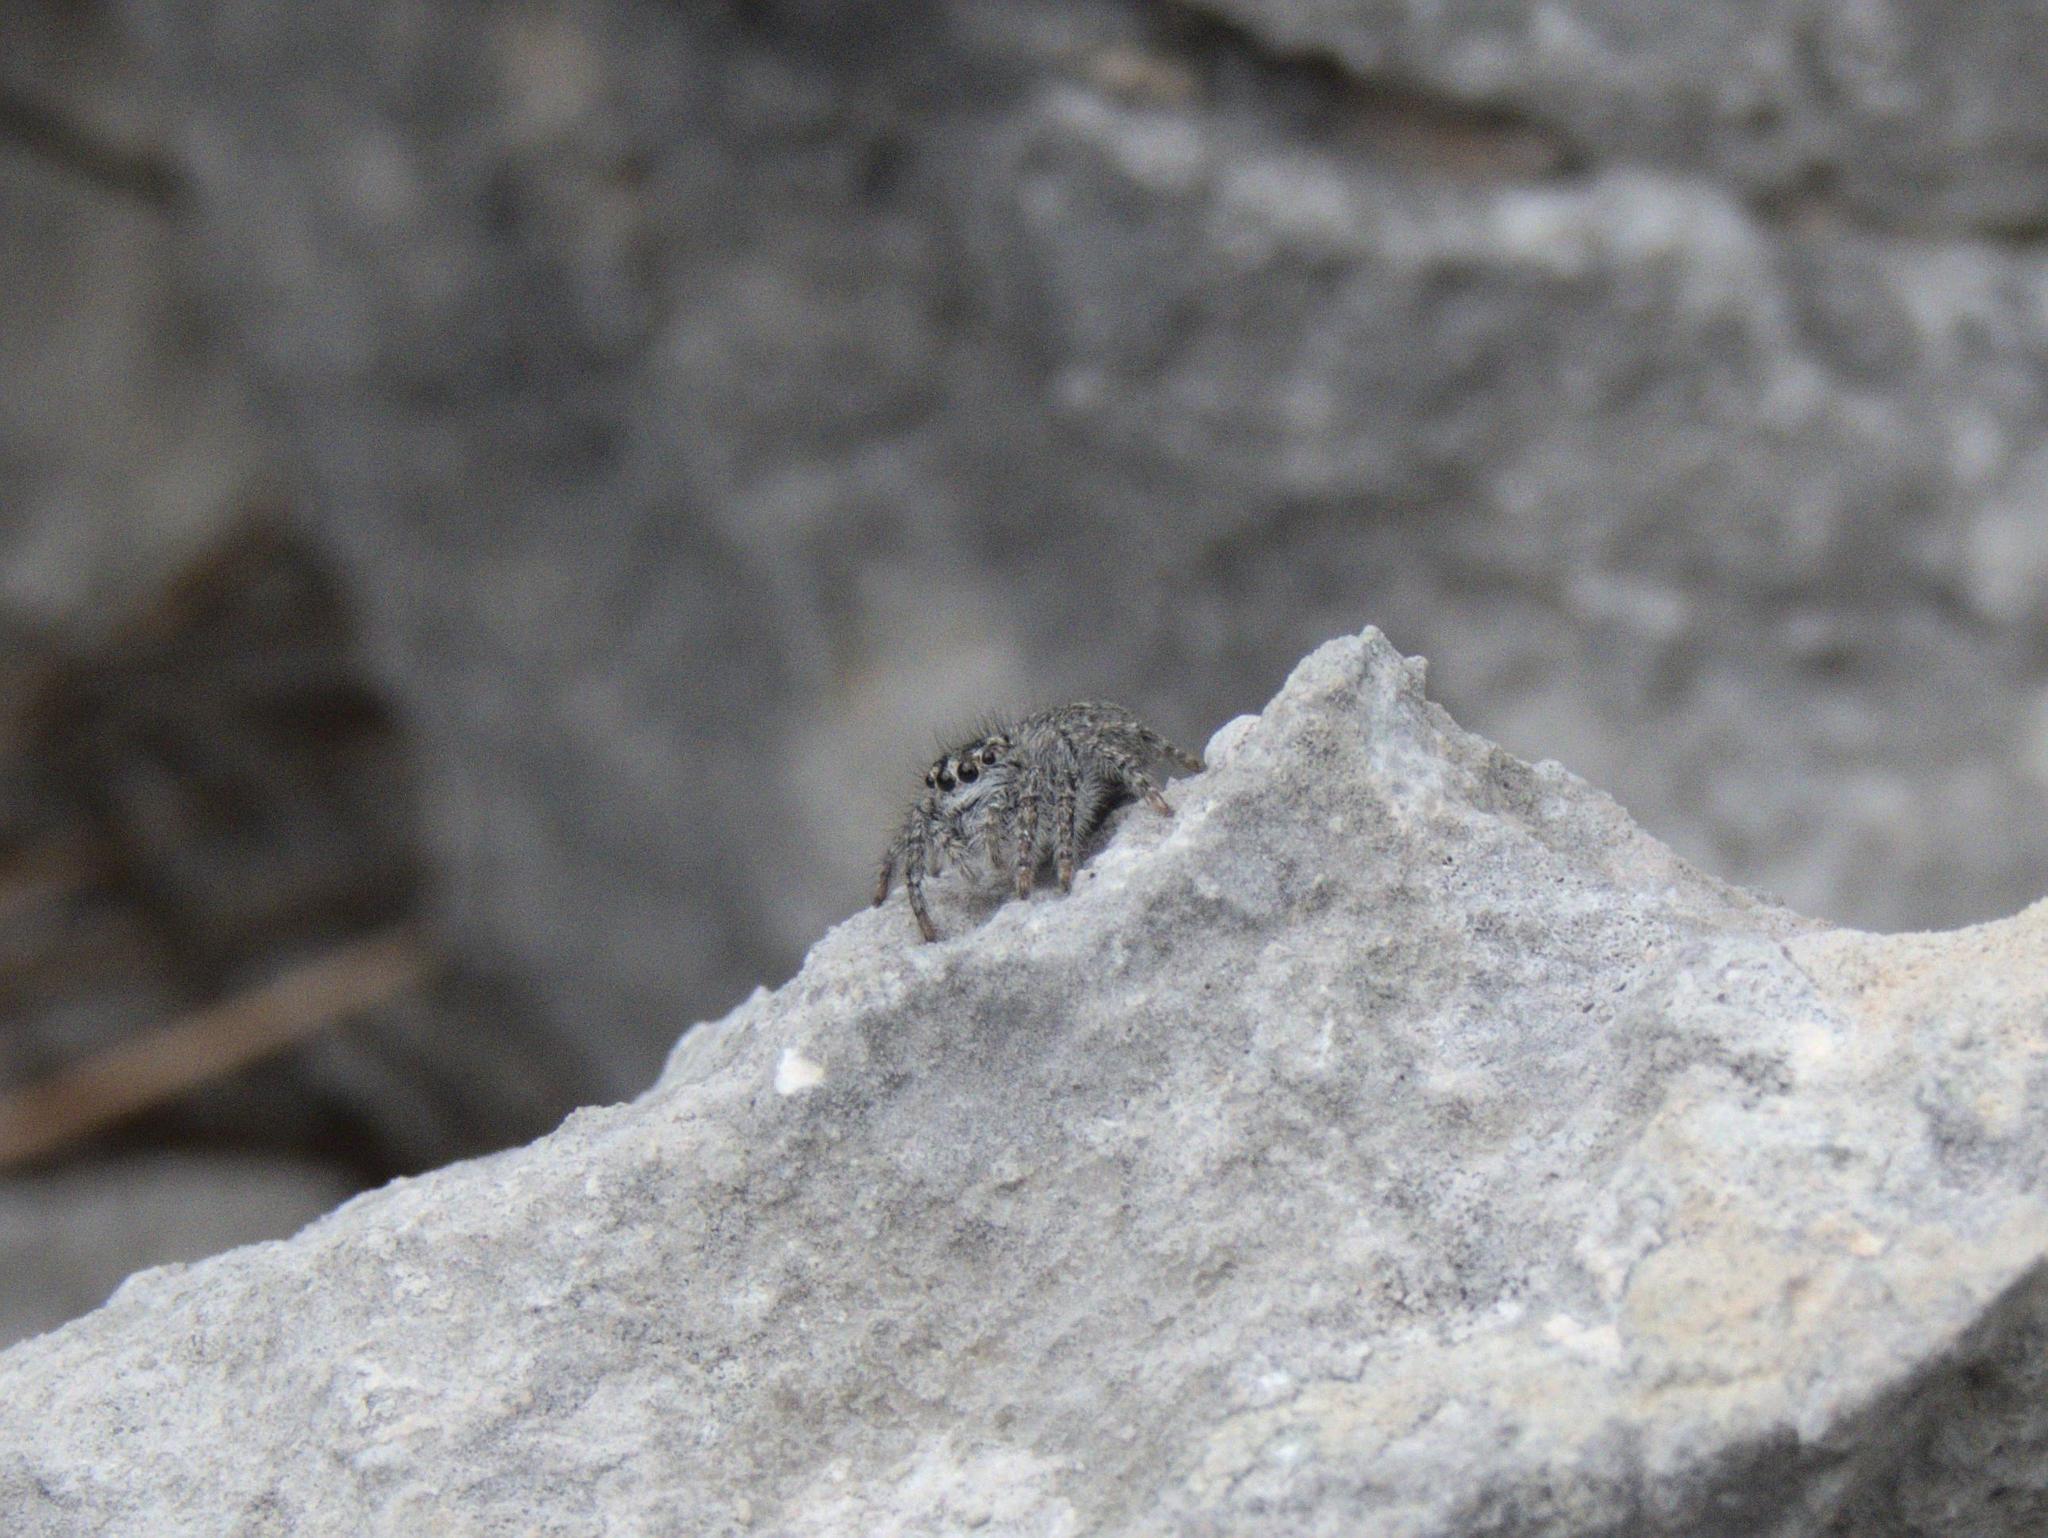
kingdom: Animalia
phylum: Arthropoda
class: Arachnida
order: Araneae
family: Salticidae
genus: Philaeus
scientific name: Philaeus chrysops
